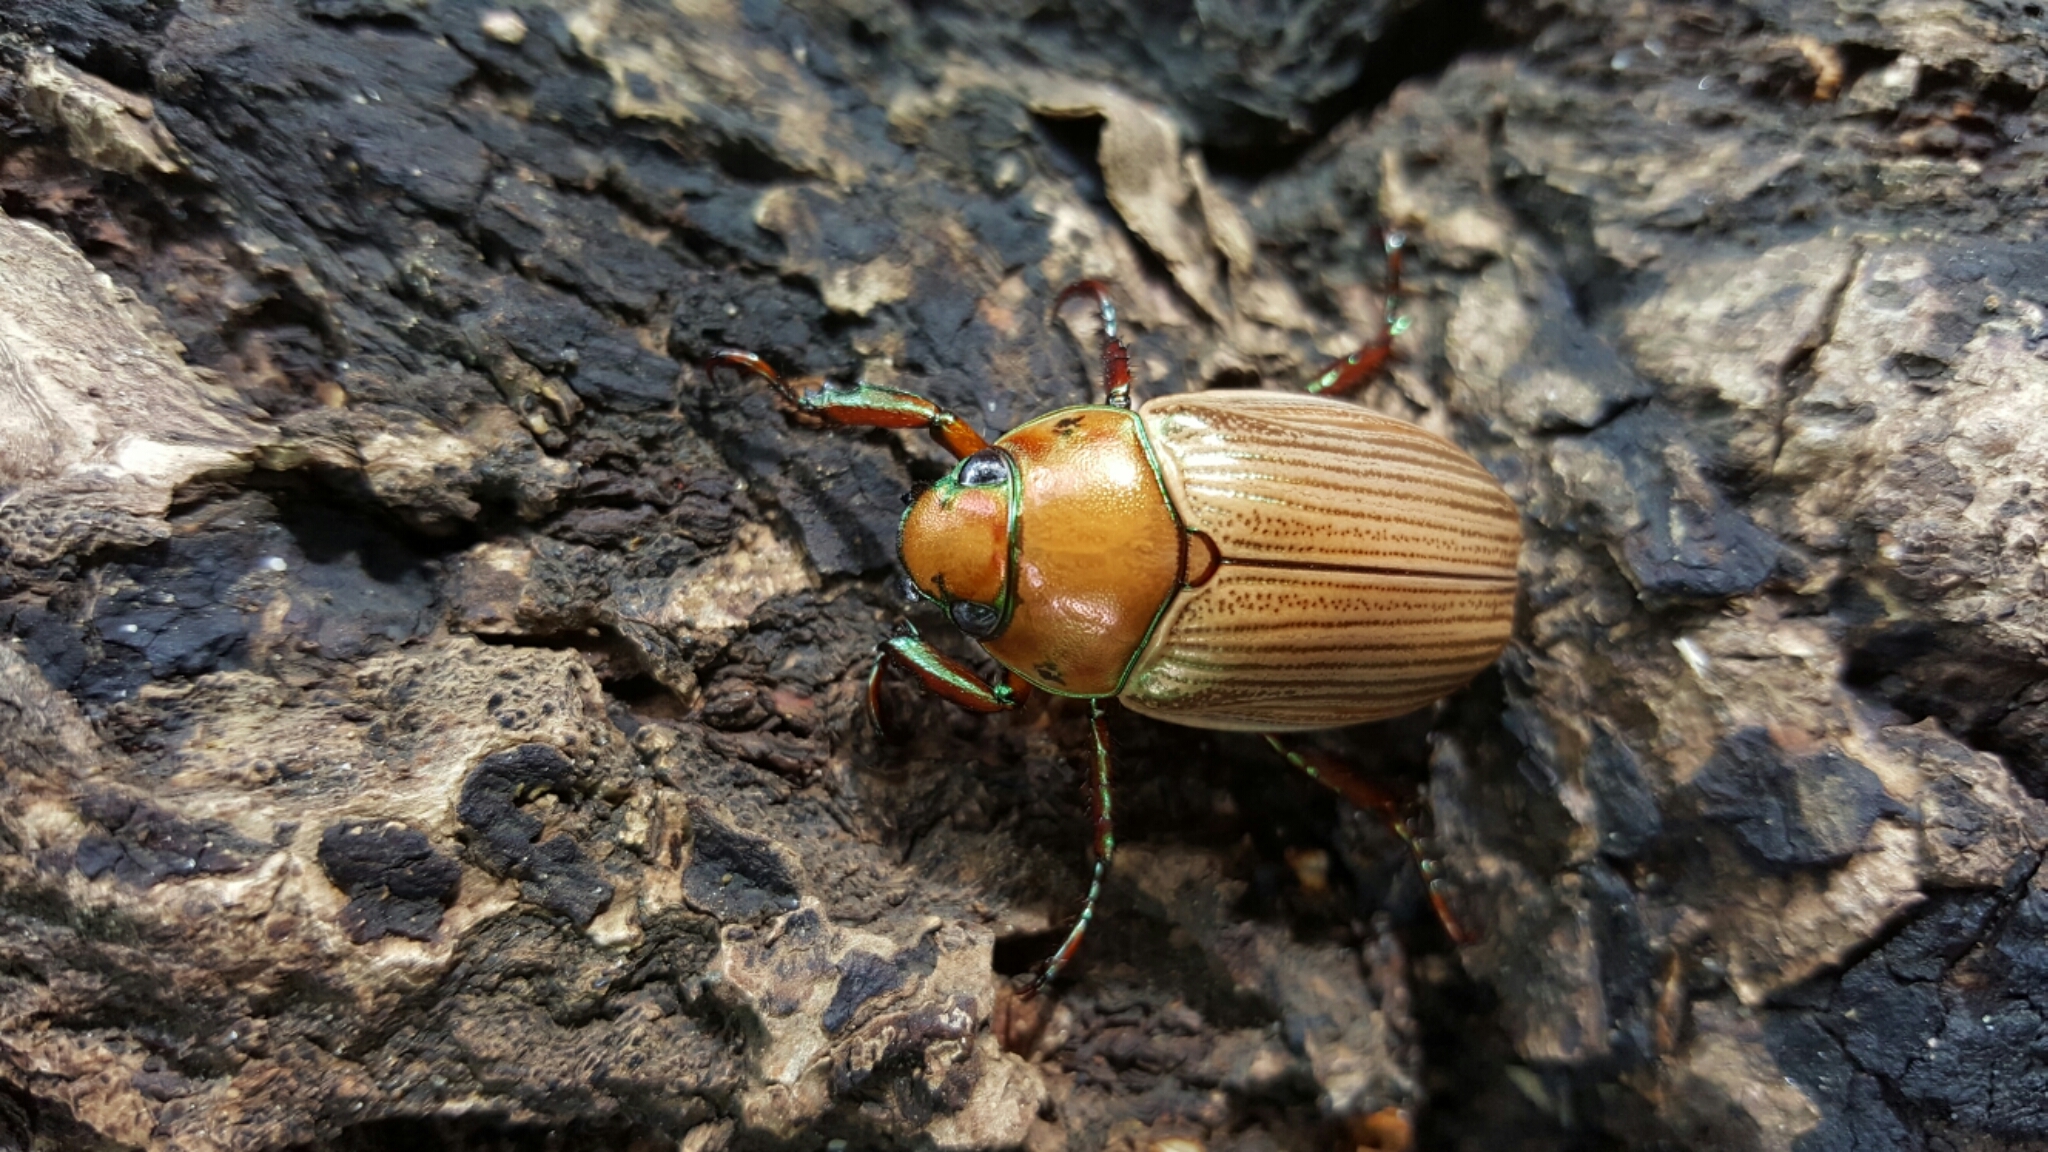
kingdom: Animalia
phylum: Arthropoda
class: Insecta
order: Coleoptera
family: Scarabaeidae
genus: Pelidnota
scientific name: Pelidnota strigosa
